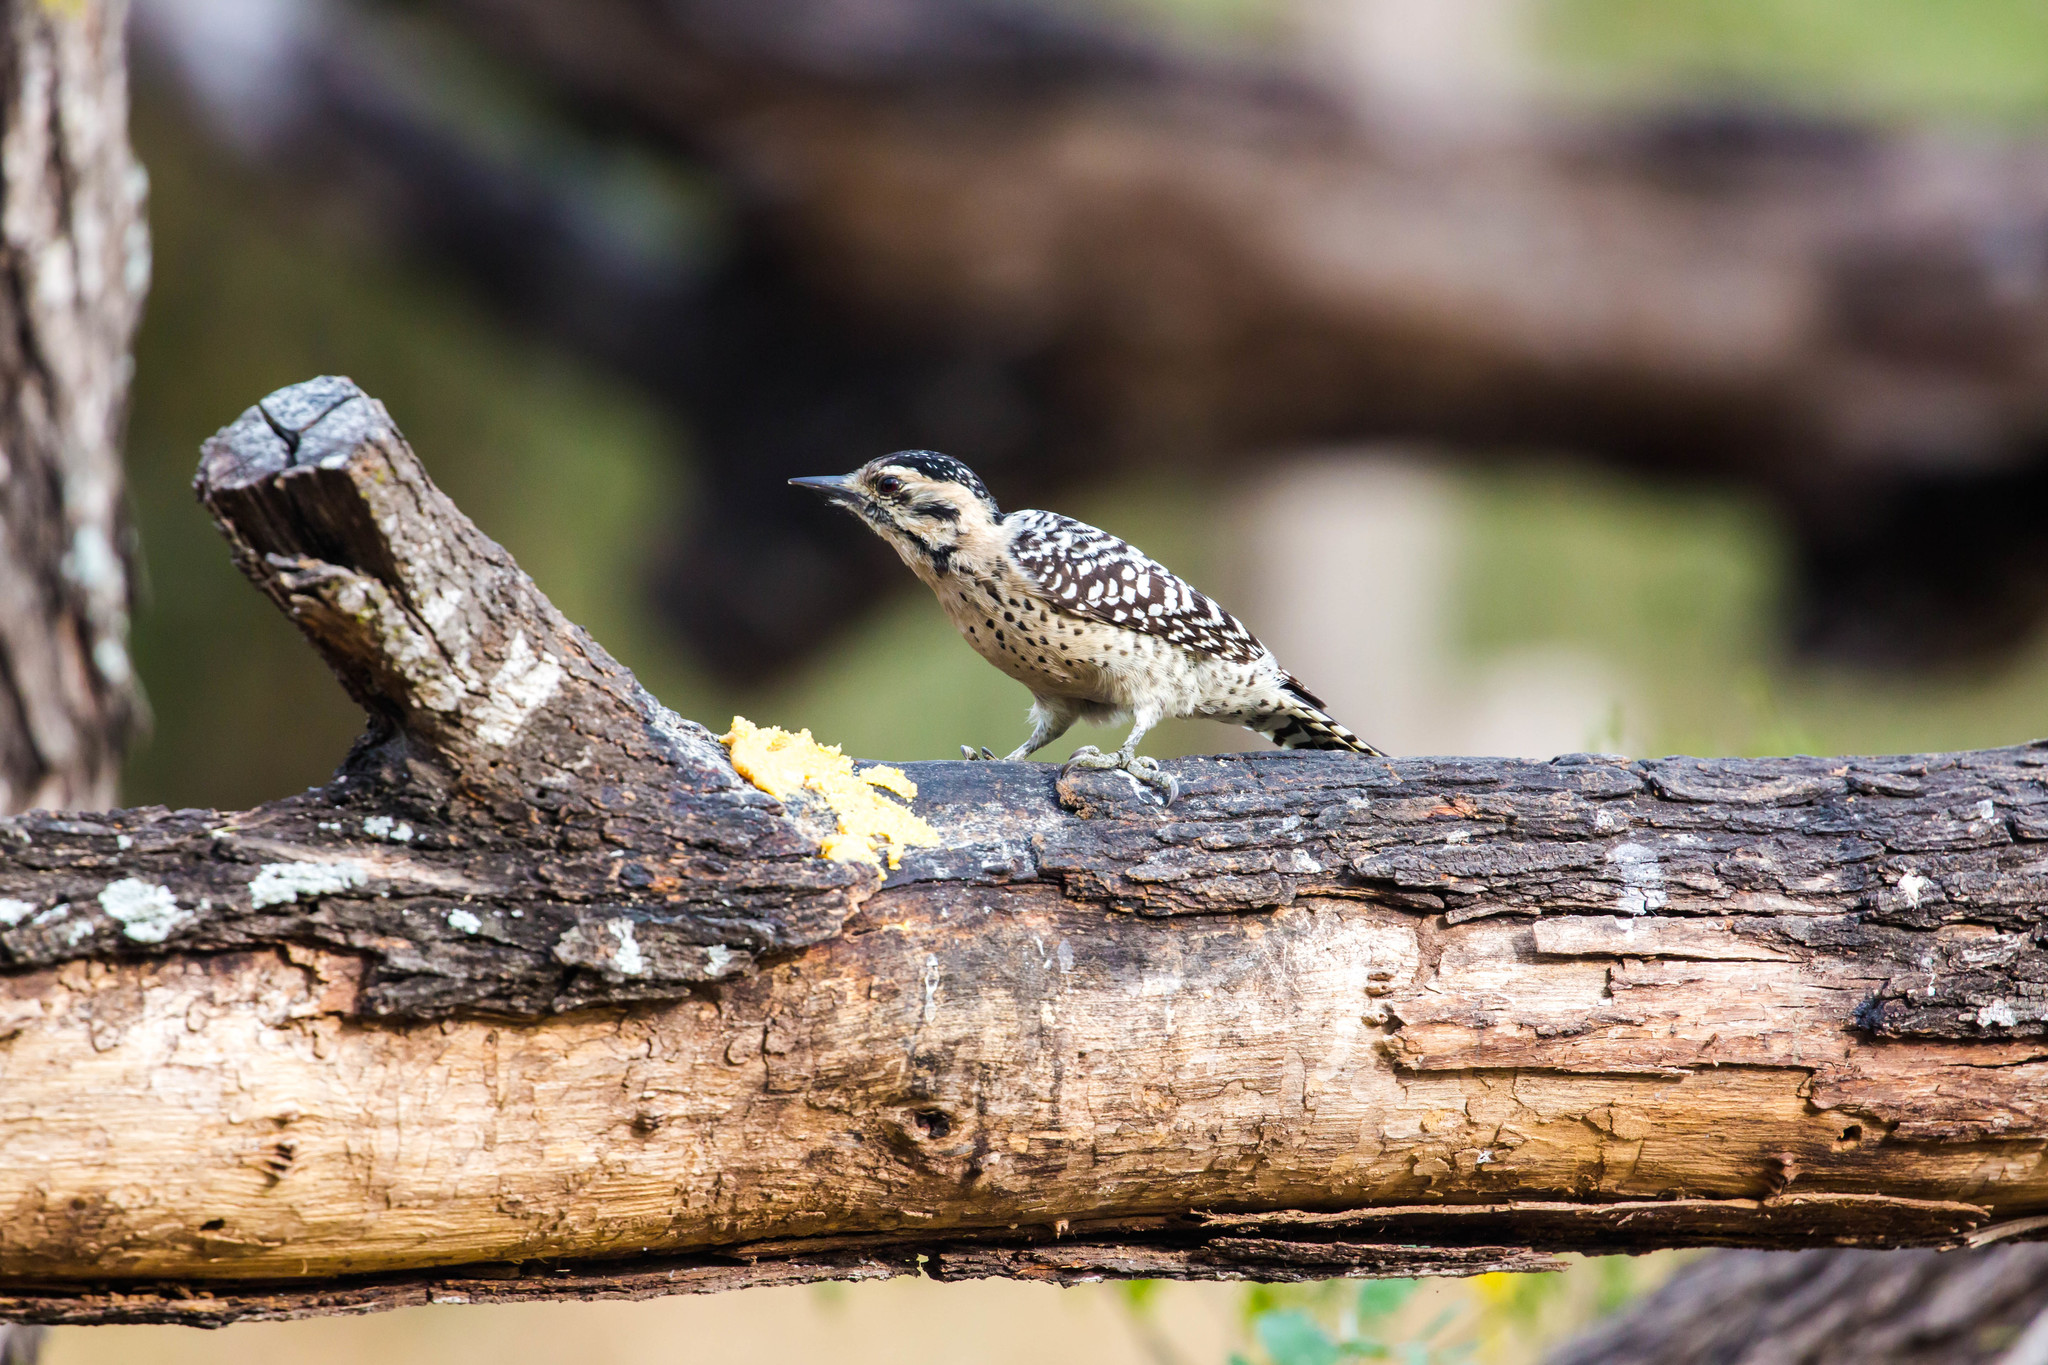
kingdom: Animalia
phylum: Chordata
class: Aves
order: Piciformes
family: Picidae
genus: Dryobates
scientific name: Dryobates scalaris
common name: Ladder-backed woodpecker
